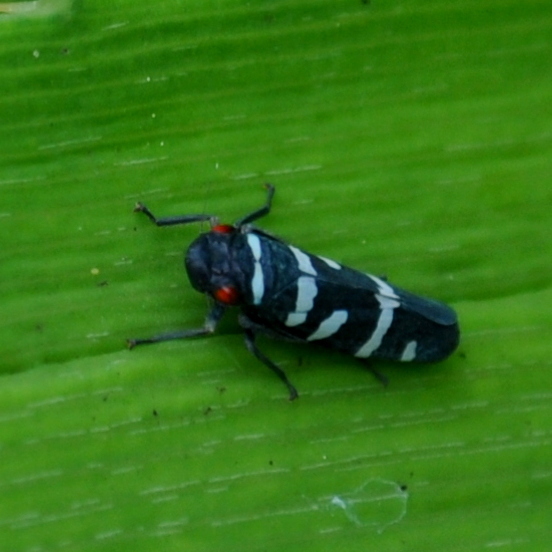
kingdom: Animalia
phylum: Arthropoda
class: Insecta
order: Hemiptera
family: Cicadellidae
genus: Balacha
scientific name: Balacha melanocephala
